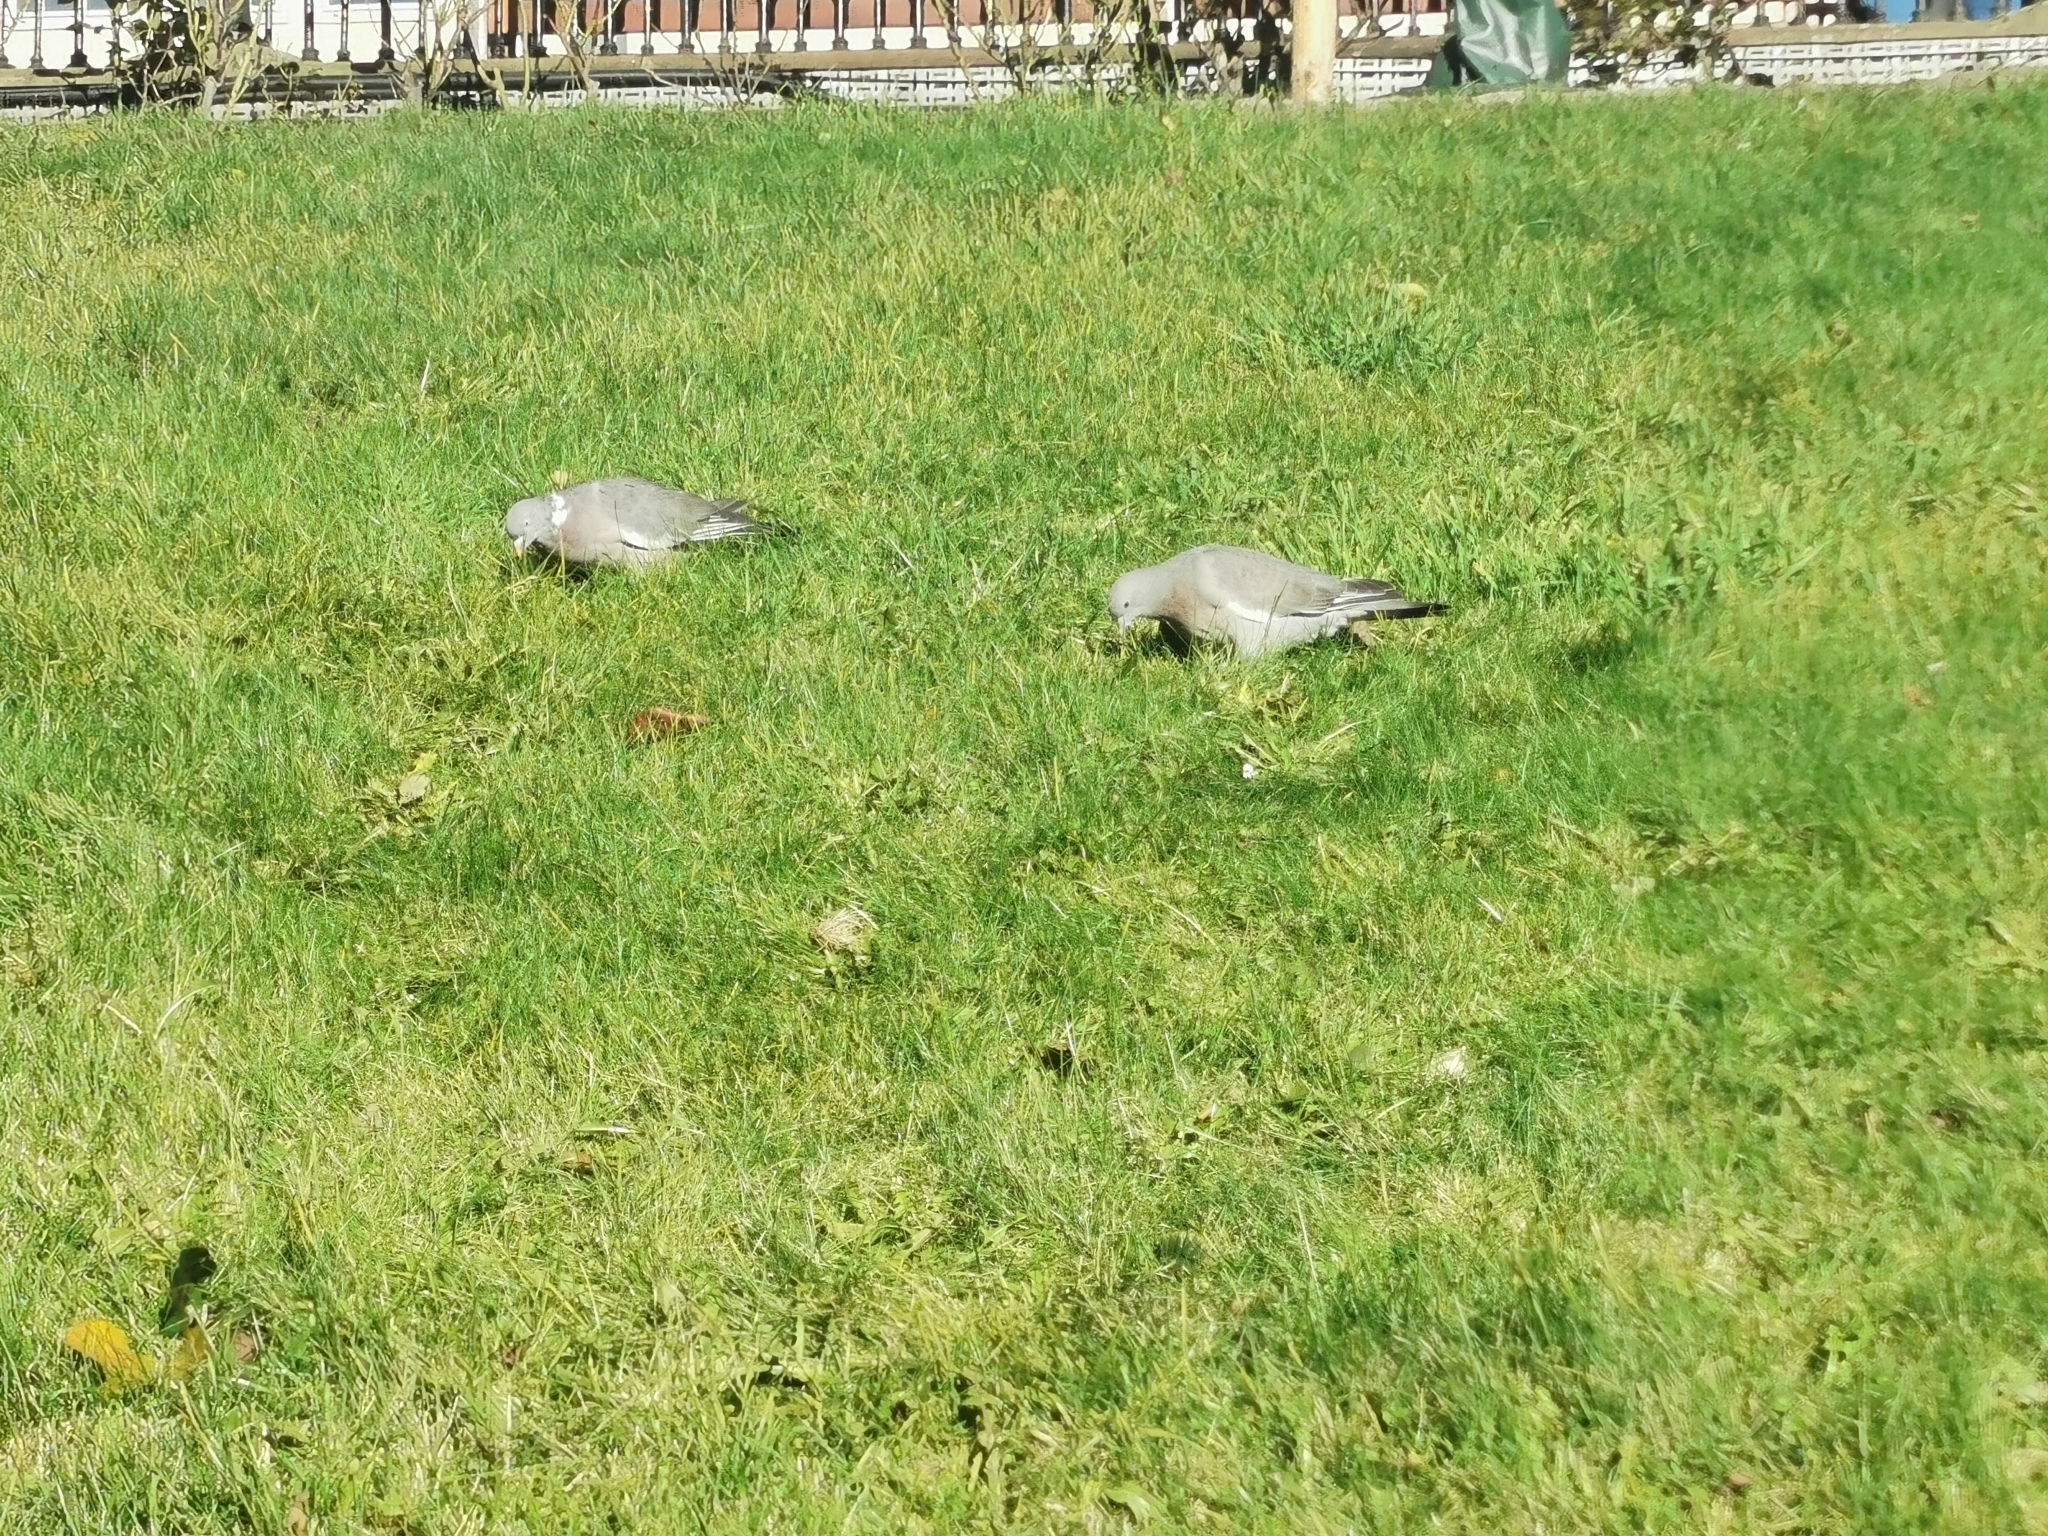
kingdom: Animalia
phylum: Chordata
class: Aves
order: Columbiformes
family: Columbidae
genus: Columba
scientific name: Columba palumbus
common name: Common wood pigeon
